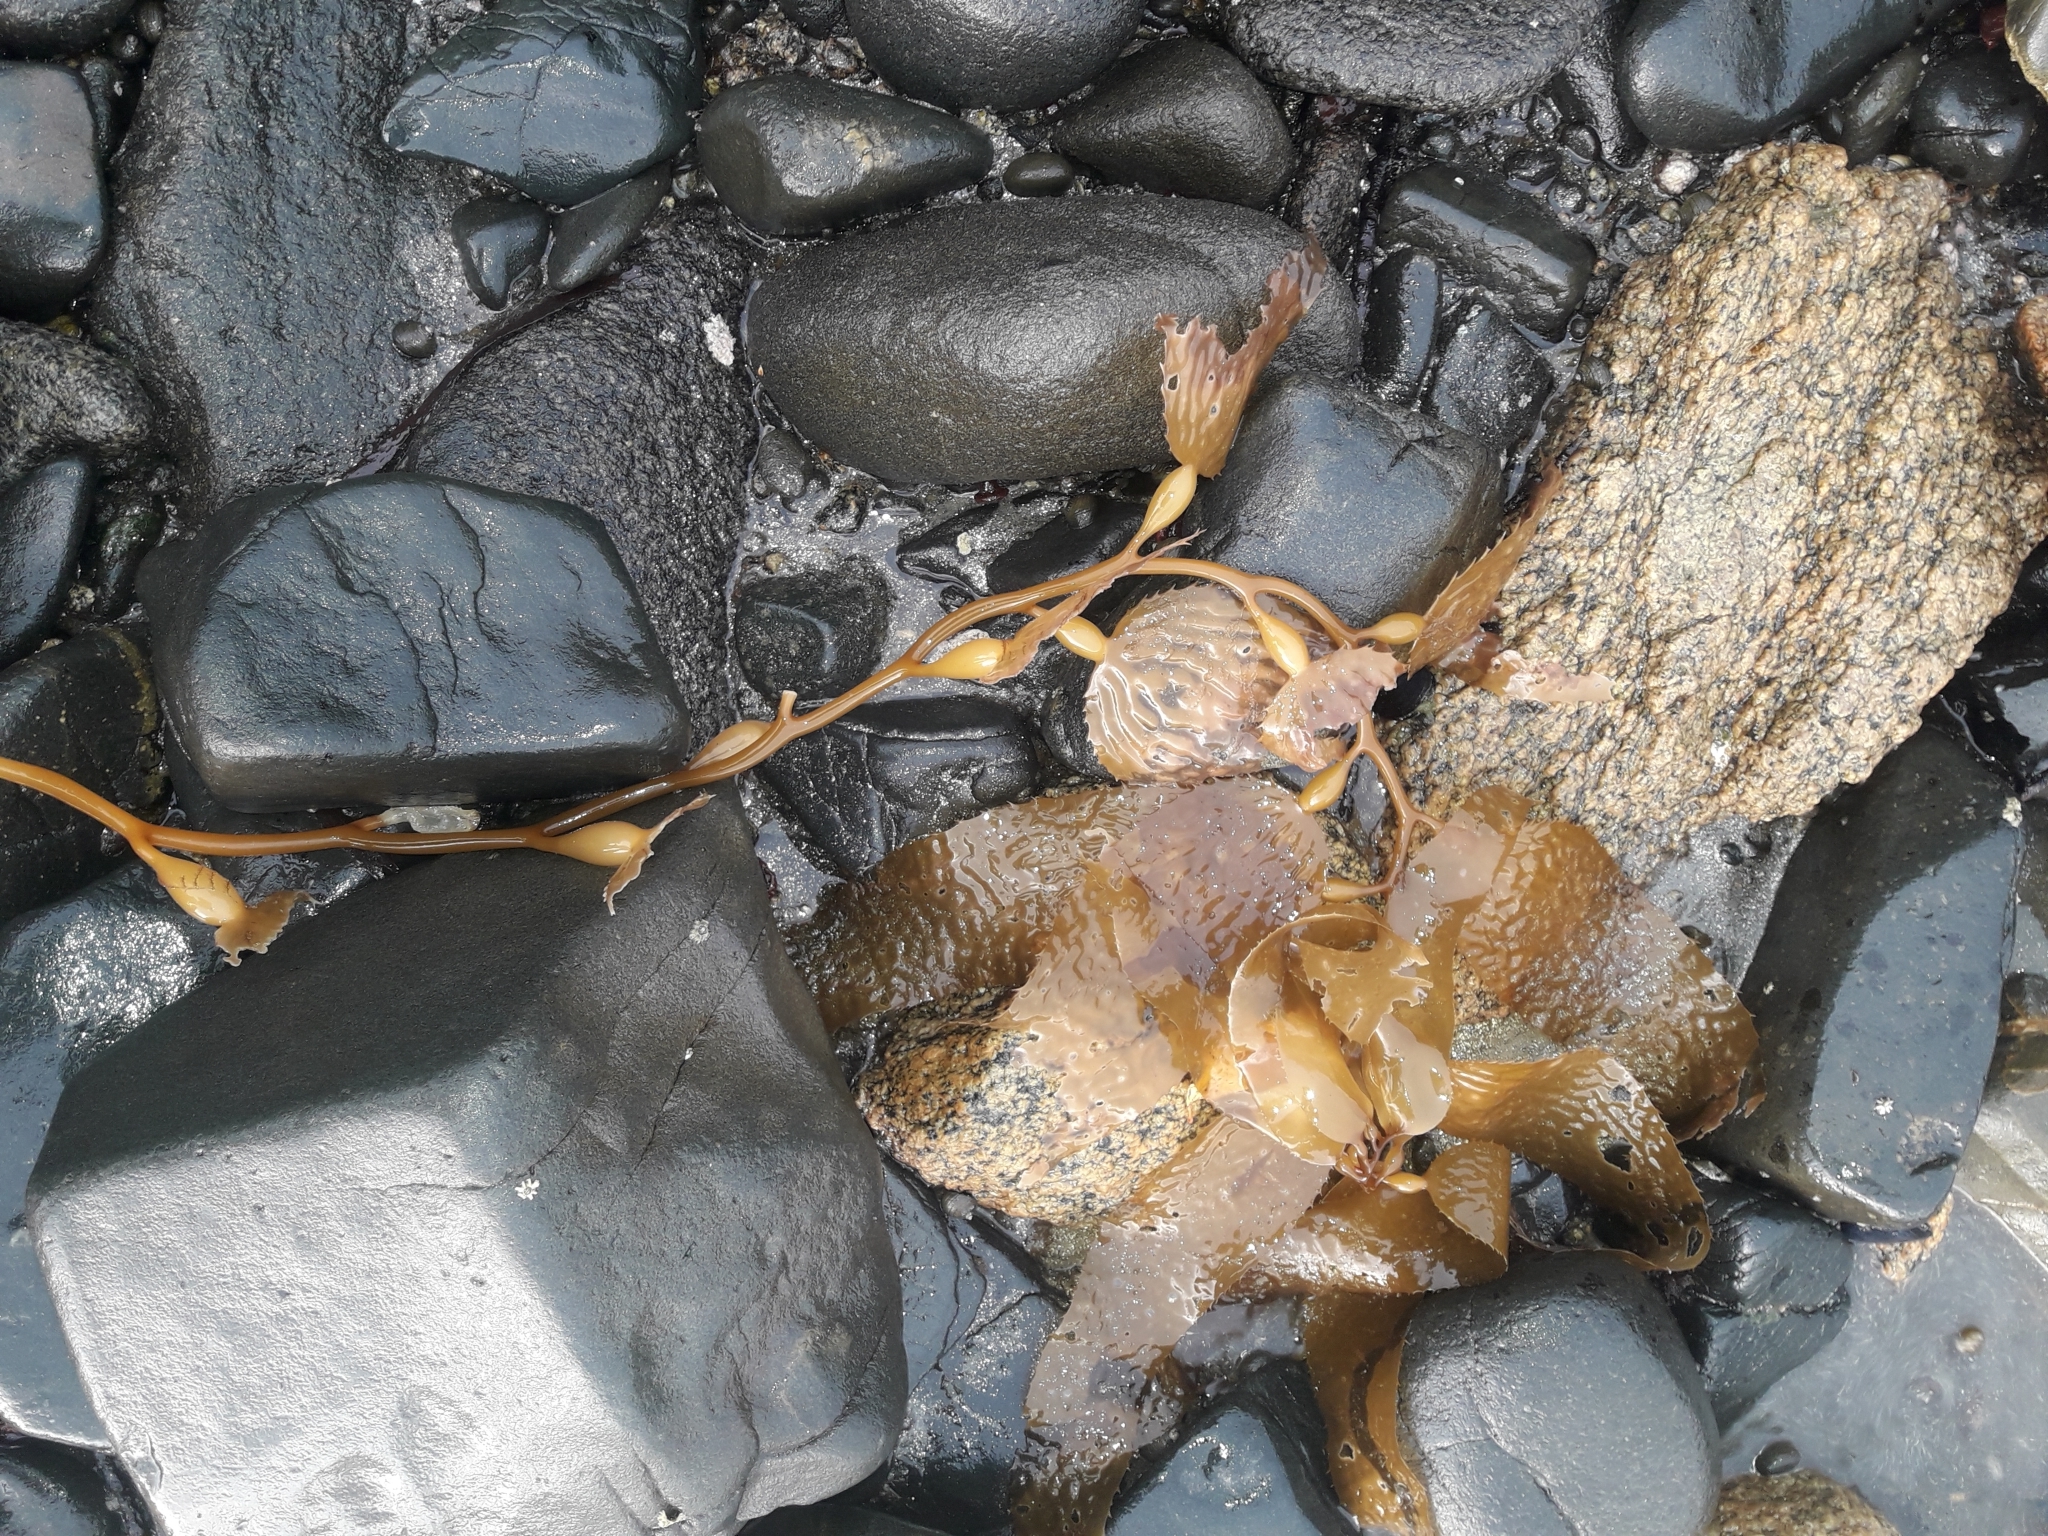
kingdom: Chromista
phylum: Ochrophyta
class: Phaeophyceae
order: Laminariales
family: Laminariaceae
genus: Macrocystis
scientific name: Macrocystis pyrifera
